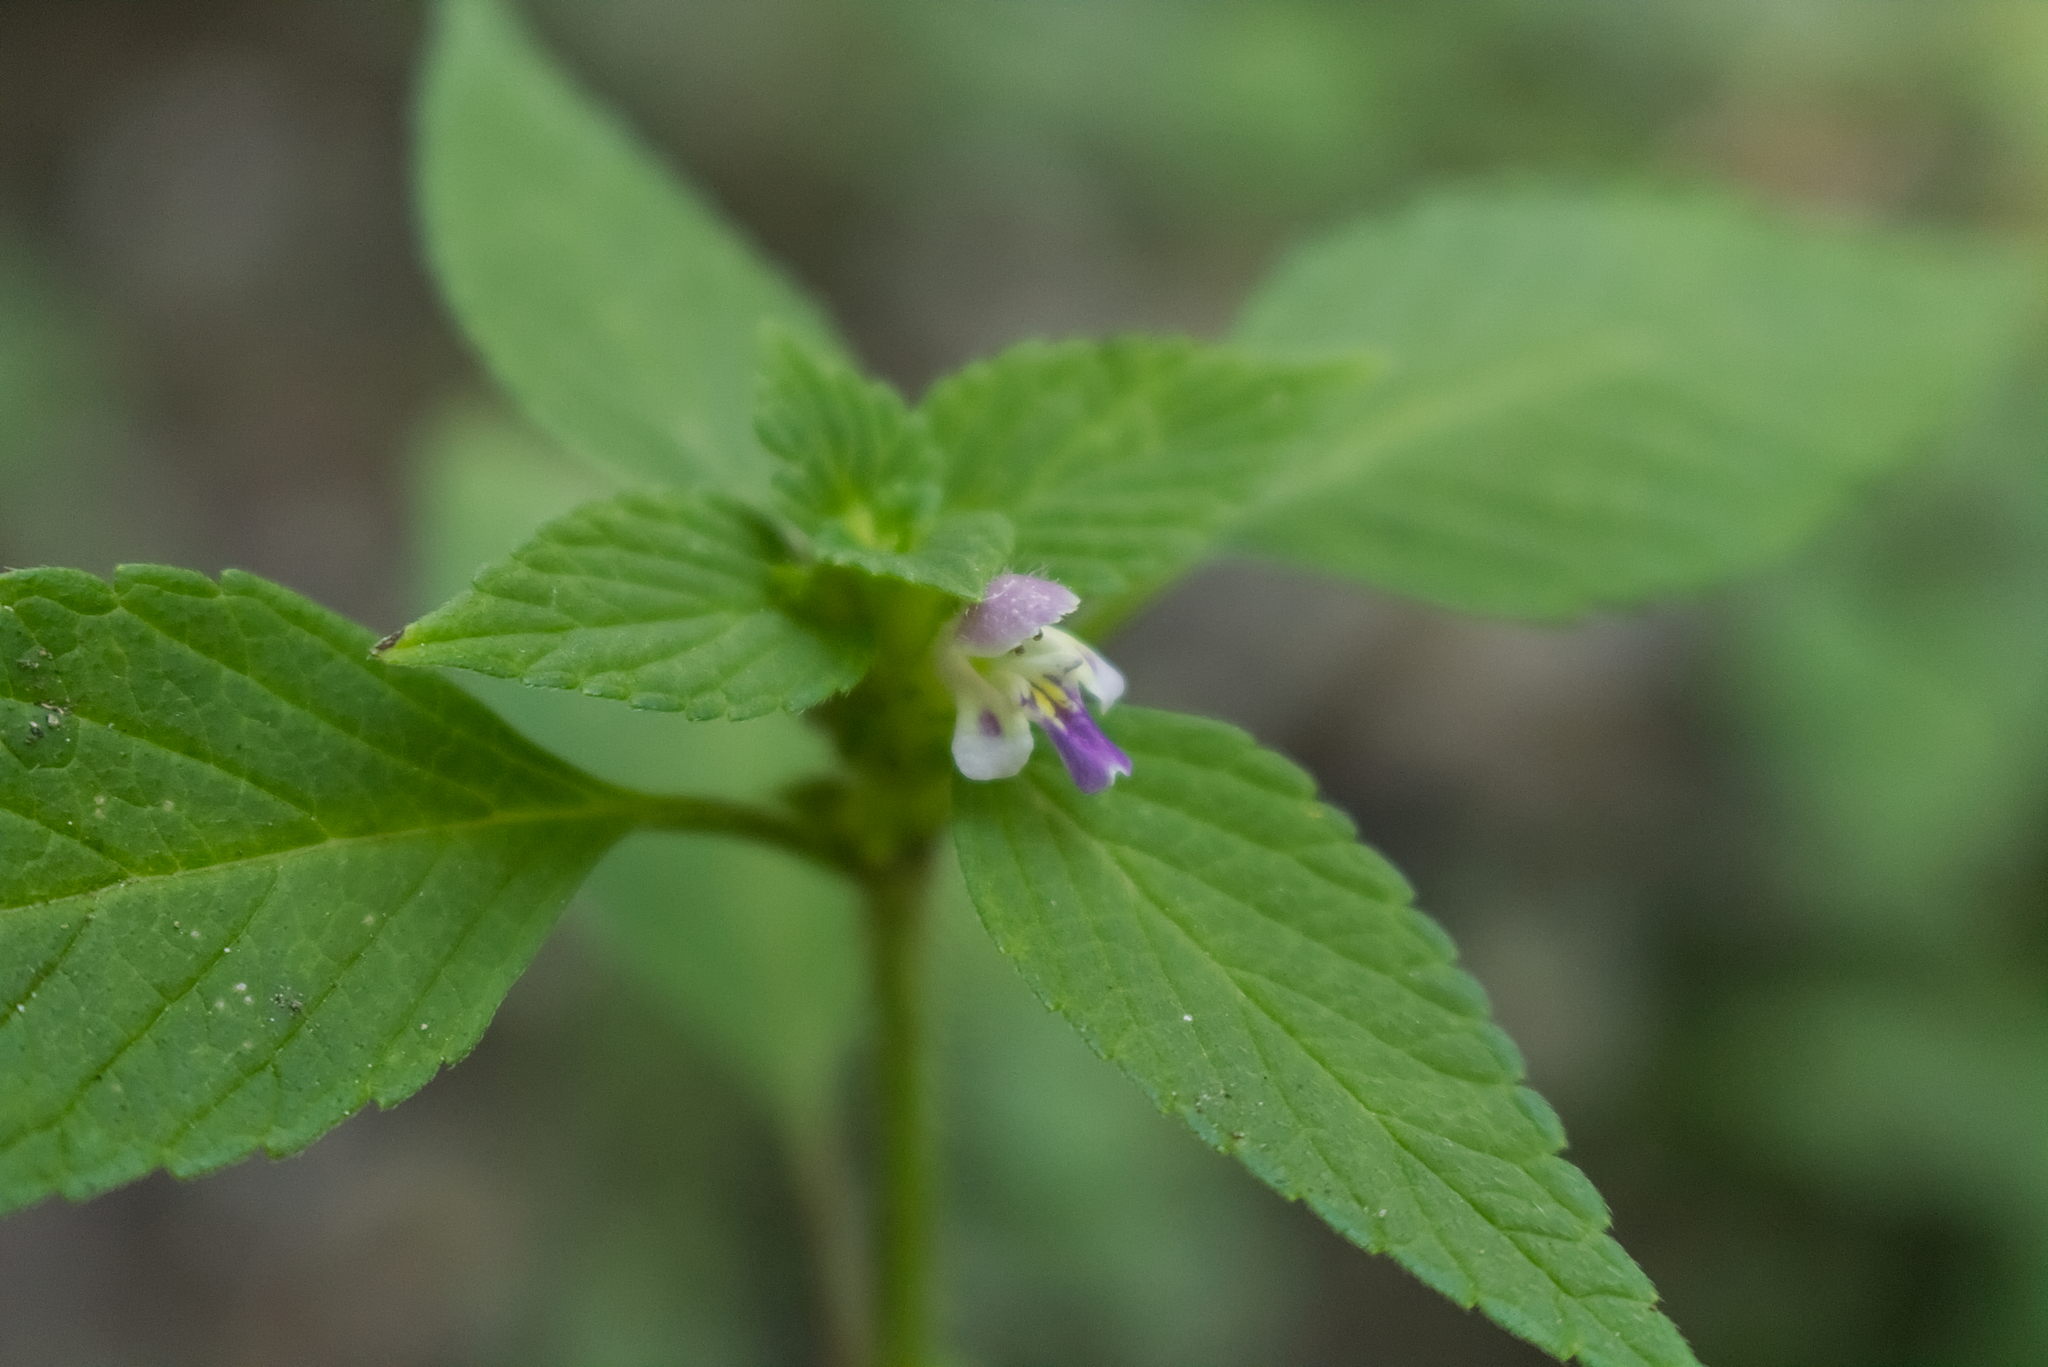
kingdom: Plantae
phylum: Tracheophyta
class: Magnoliopsida
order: Lamiales
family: Lamiaceae
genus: Galeopsis
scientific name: Galeopsis bifida
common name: Bifid hemp-nettle
